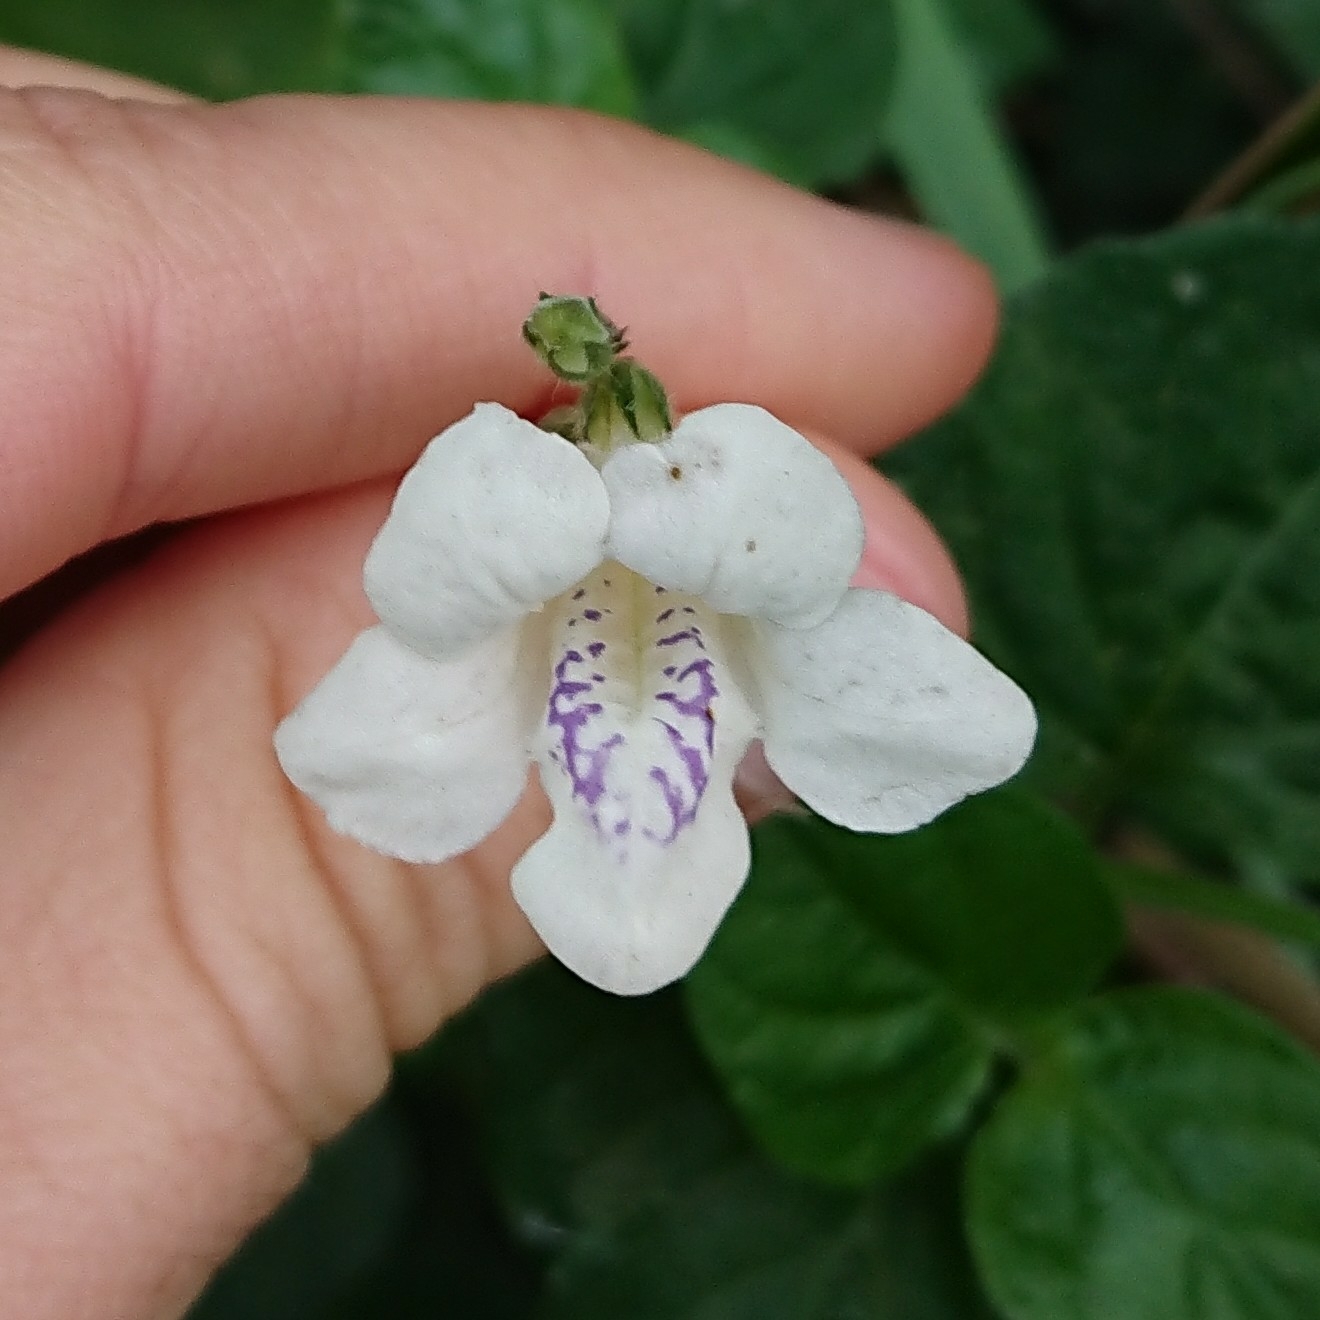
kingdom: Plantae
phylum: Tracheophyta
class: Magnoliopsida
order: Lamiales
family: Acanthaceae
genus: Asystasia
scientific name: Asystasia intrusa
